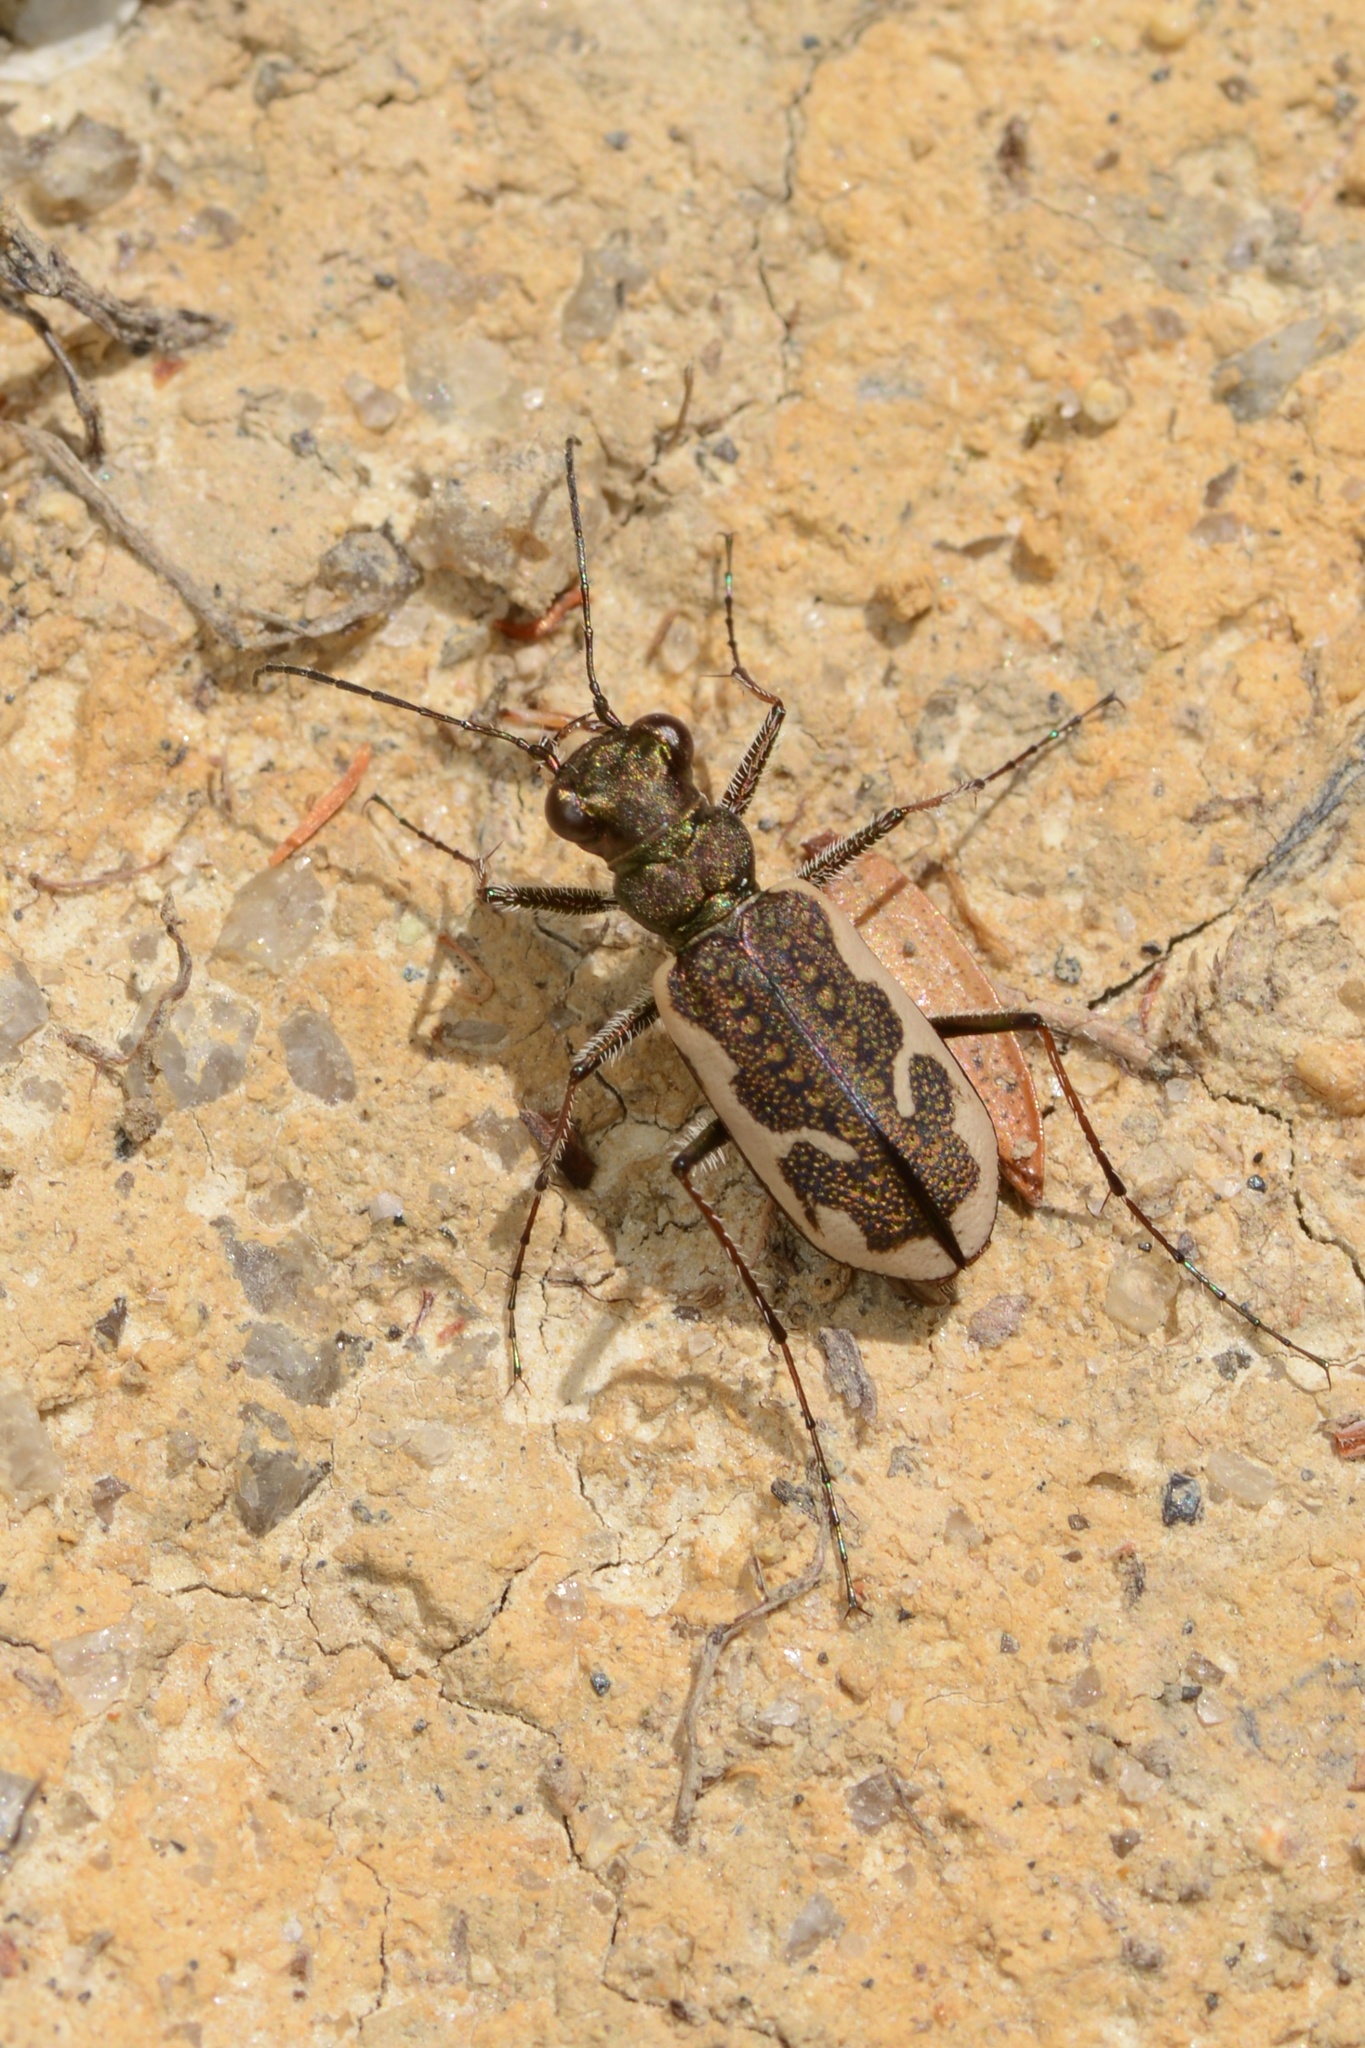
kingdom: Animalia
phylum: Arthropoda
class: Insecta
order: Coleoptera
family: Carabidae
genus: Neocicindela
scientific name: Neocicindela tuberculata
